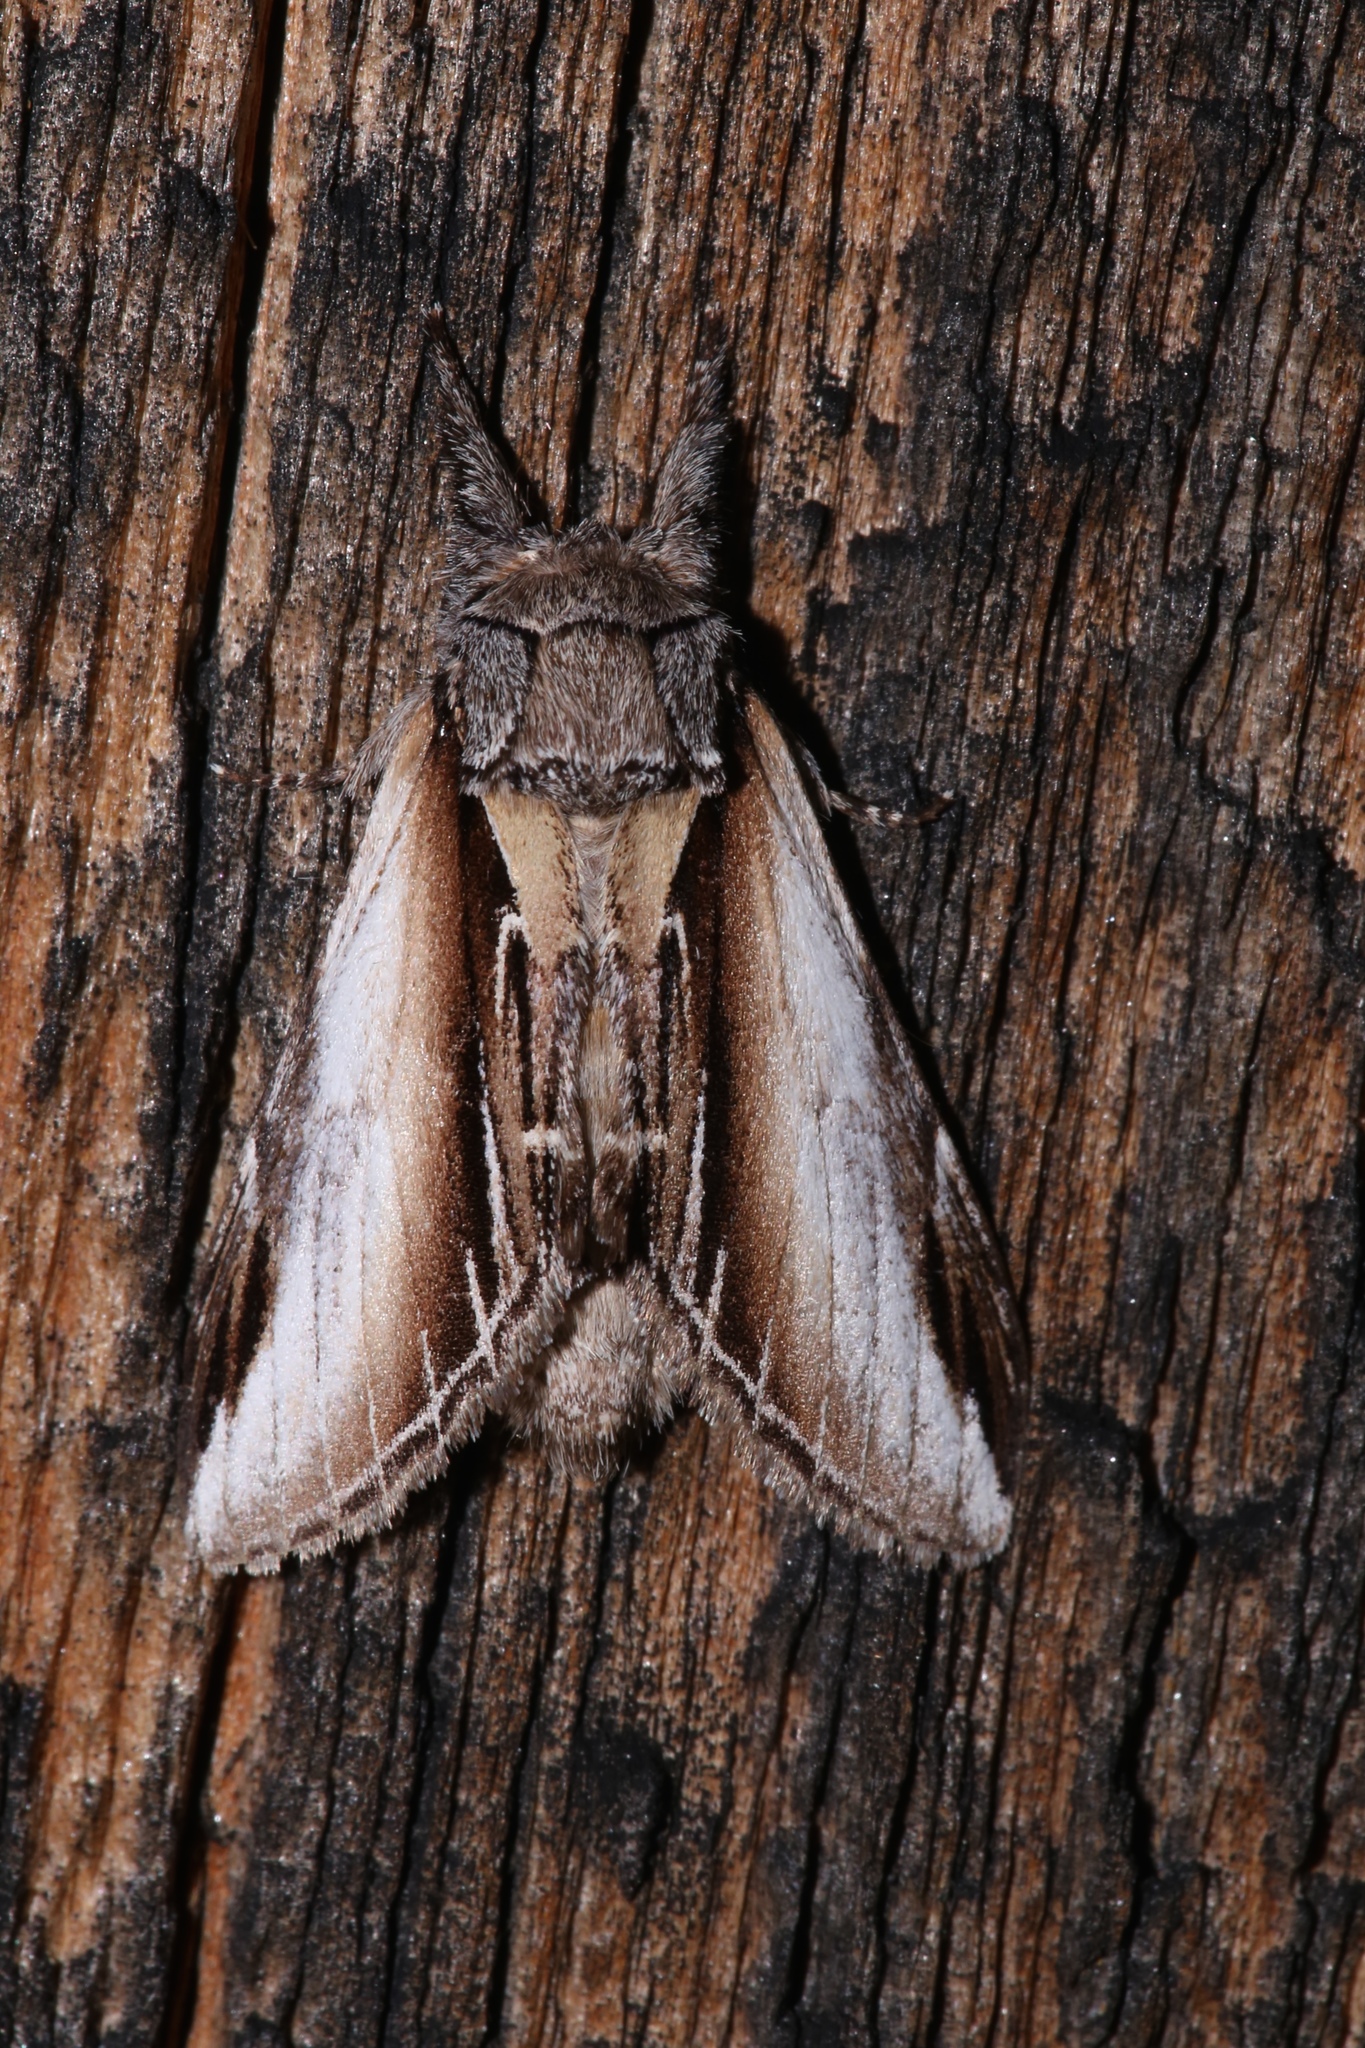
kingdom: Animalia
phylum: Arthropoda
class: Insecta
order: Lepidoptera
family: Notodontidae
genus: Pheosia
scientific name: Pheosia rimosa
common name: Black-rimmed prominent
